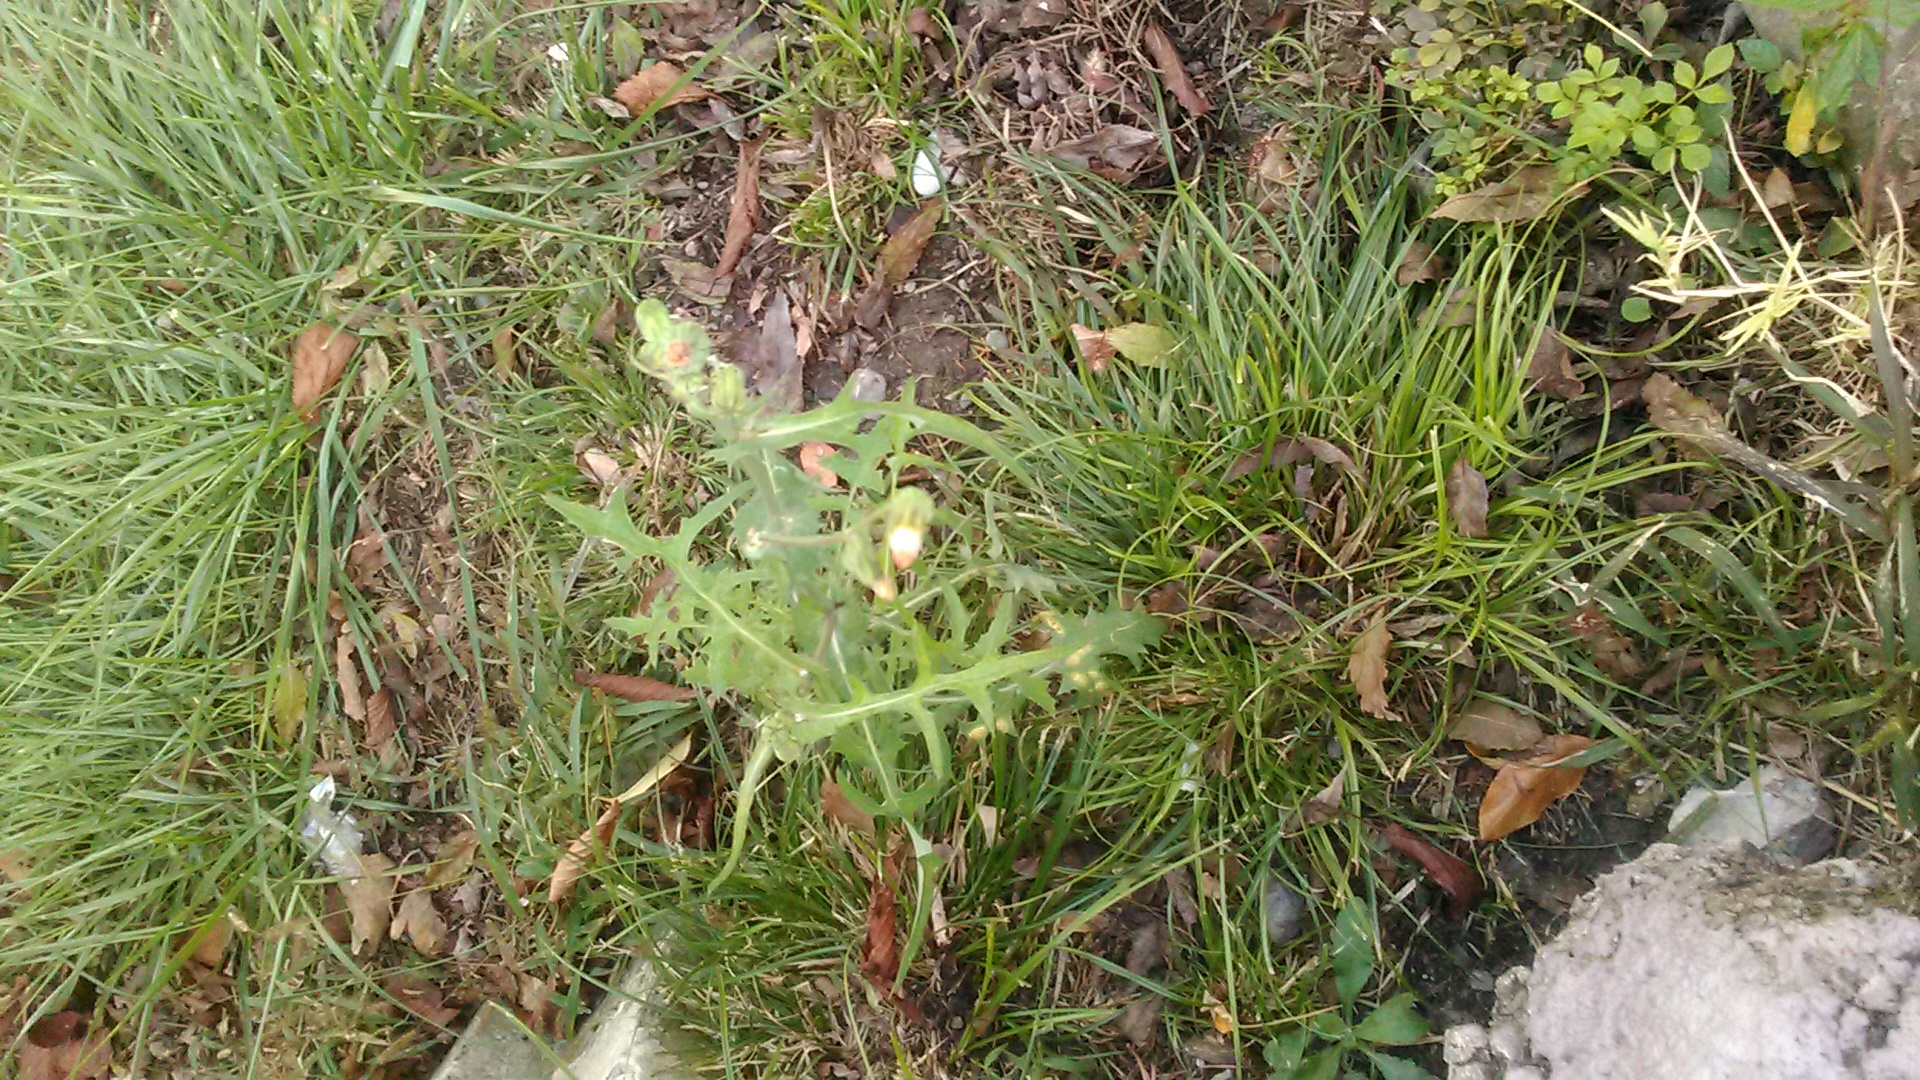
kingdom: Plantae
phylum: Tracheophyta
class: Magnoliopsida
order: Asterales
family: Asteraceae
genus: Sonchus
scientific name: Sonchus oleraceus
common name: Common sowthistle
